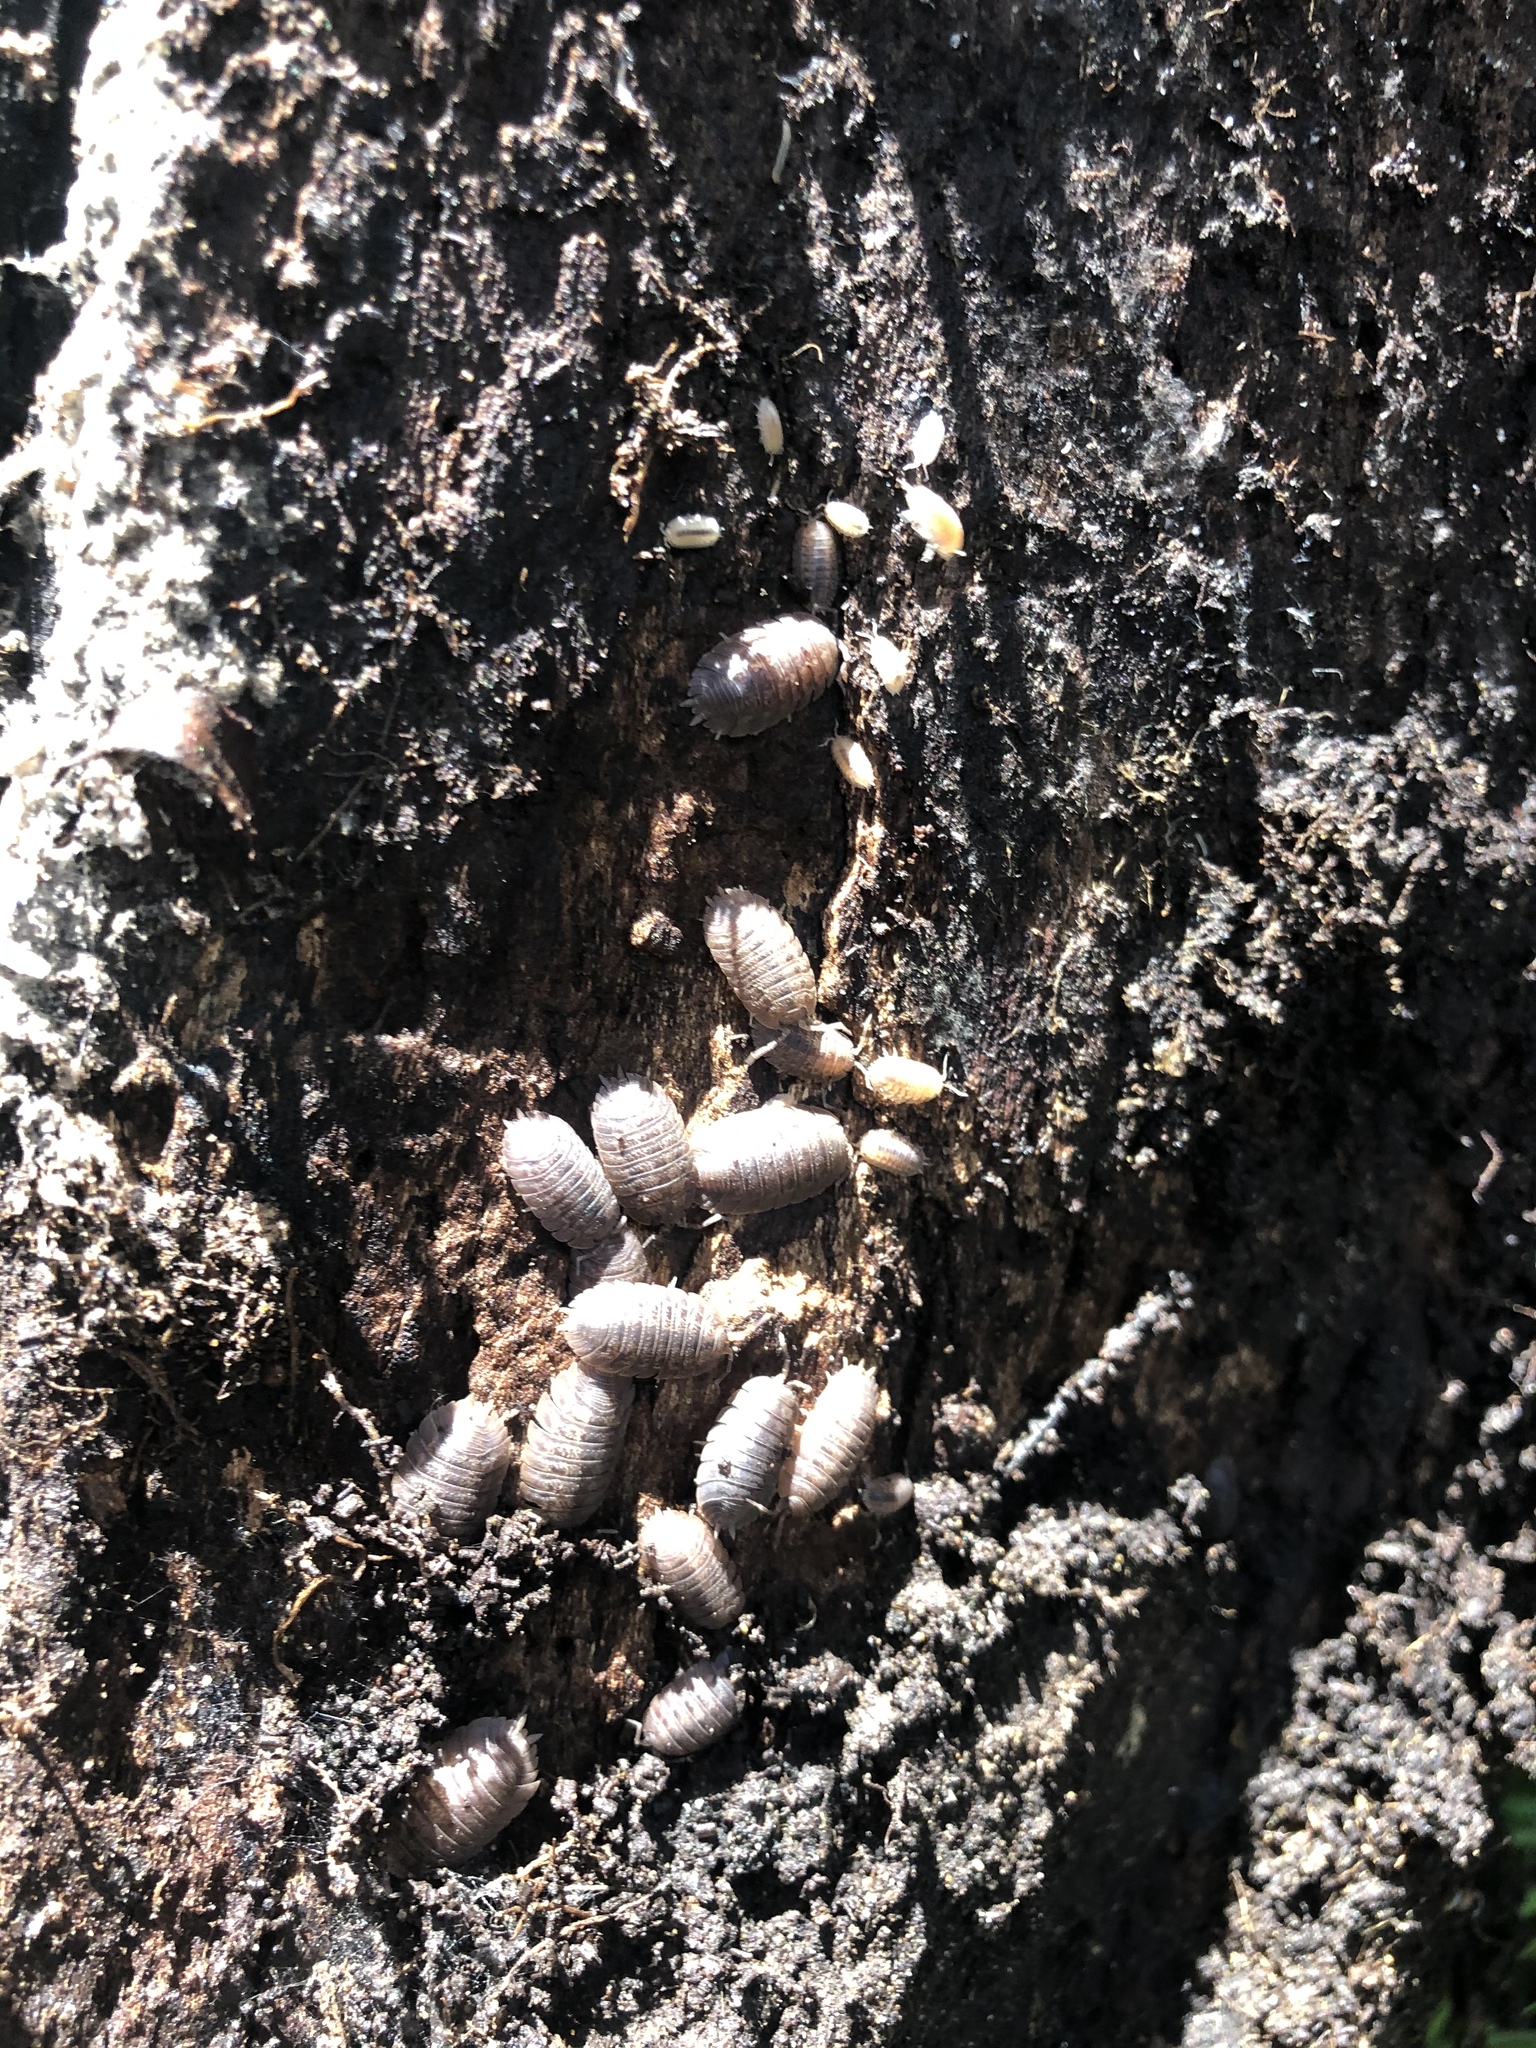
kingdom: Animalia
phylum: Arthropoda
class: Malacostraca
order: Isopoda
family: Porcellionidae
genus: Porcellio
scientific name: Porcellio dilatatus
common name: Isopod
